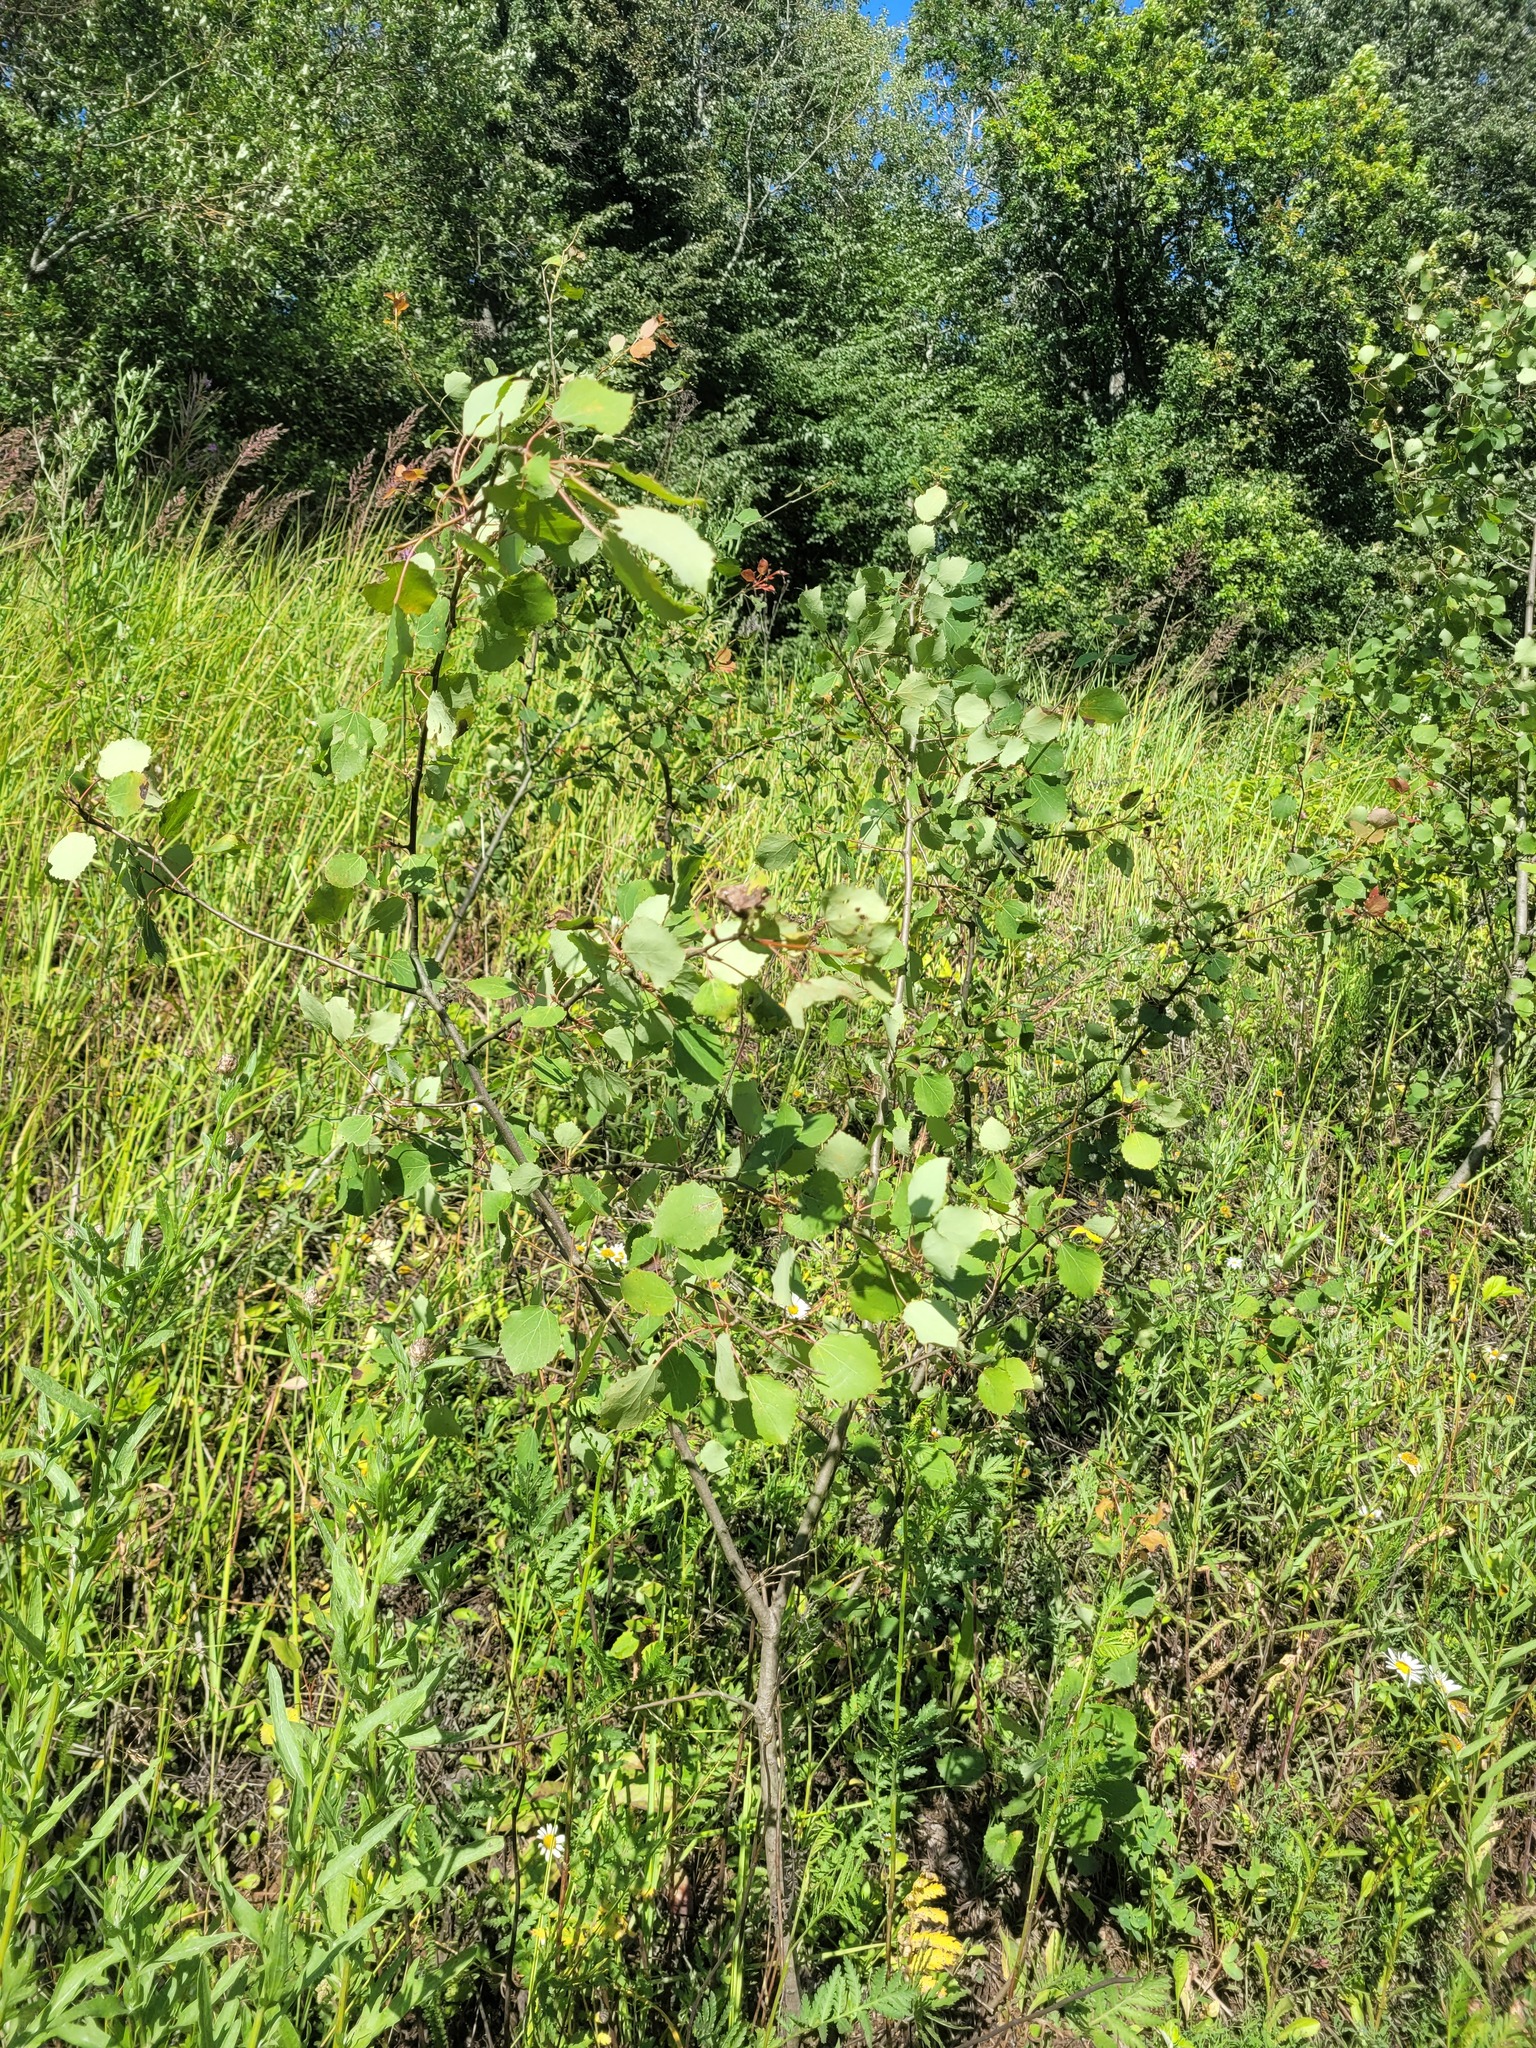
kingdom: Plantae
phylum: Tracheophyta
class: Magnoliopsida
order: Malpighiales
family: Salicaceae
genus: Populus
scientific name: Populus tremula
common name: European aspen
